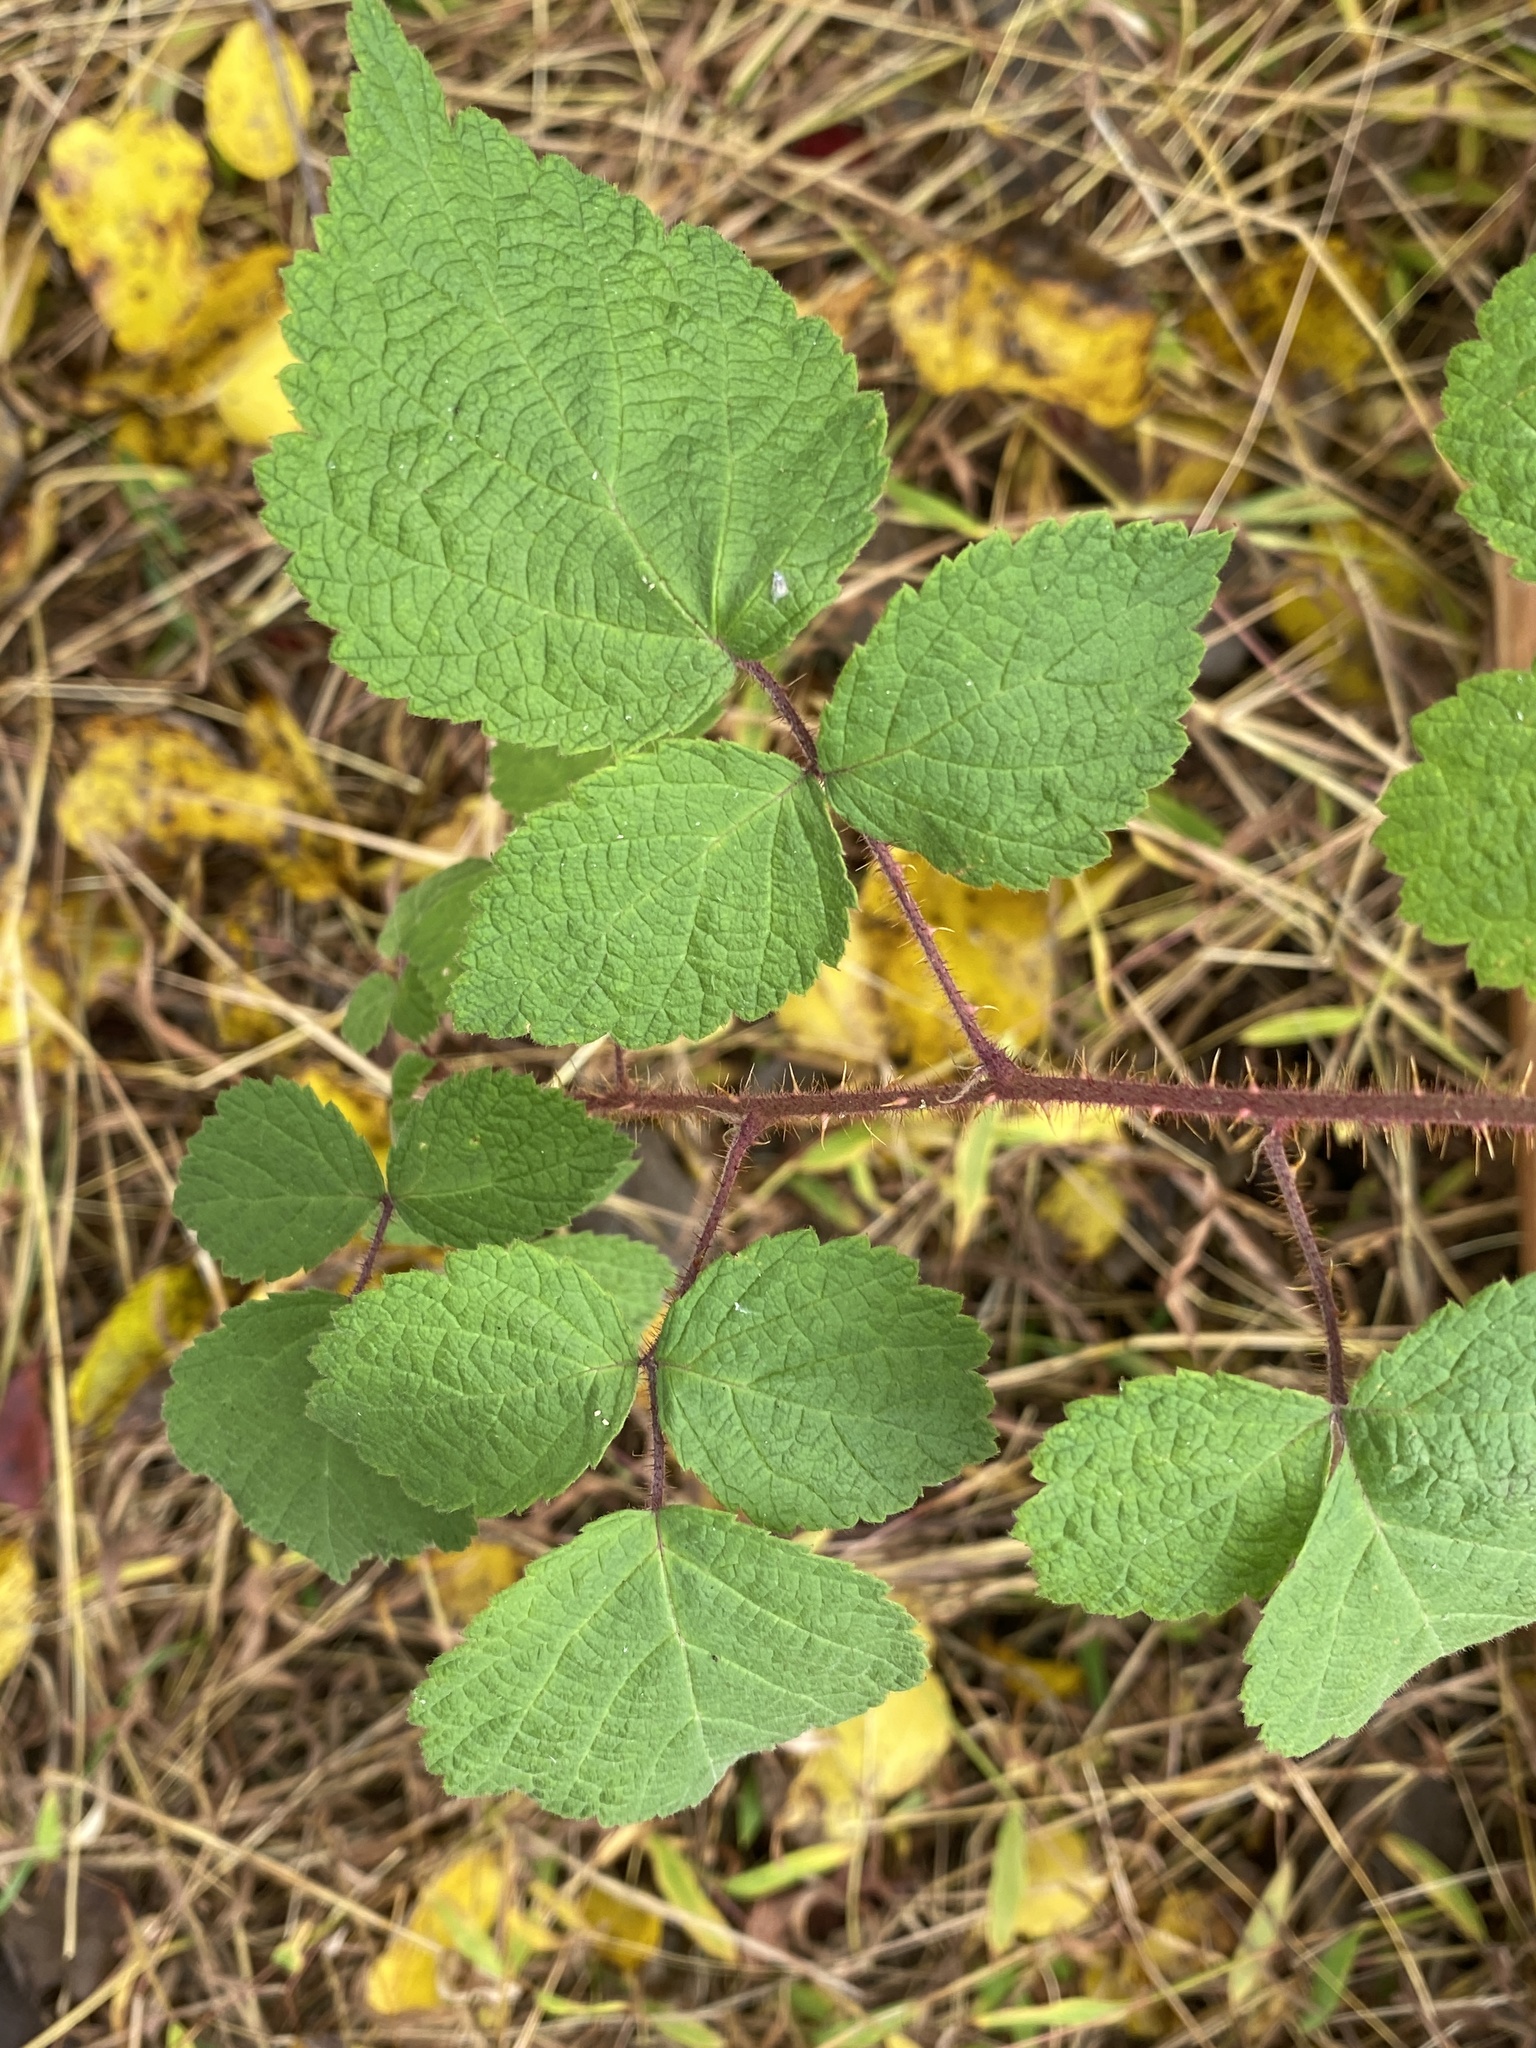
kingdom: Plantae
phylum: Tracheophyta
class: Magnoliopsida
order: Rosales
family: Rosaceae
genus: Rubus
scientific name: Rubus phoenicolasius
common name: Japanese wineberry
